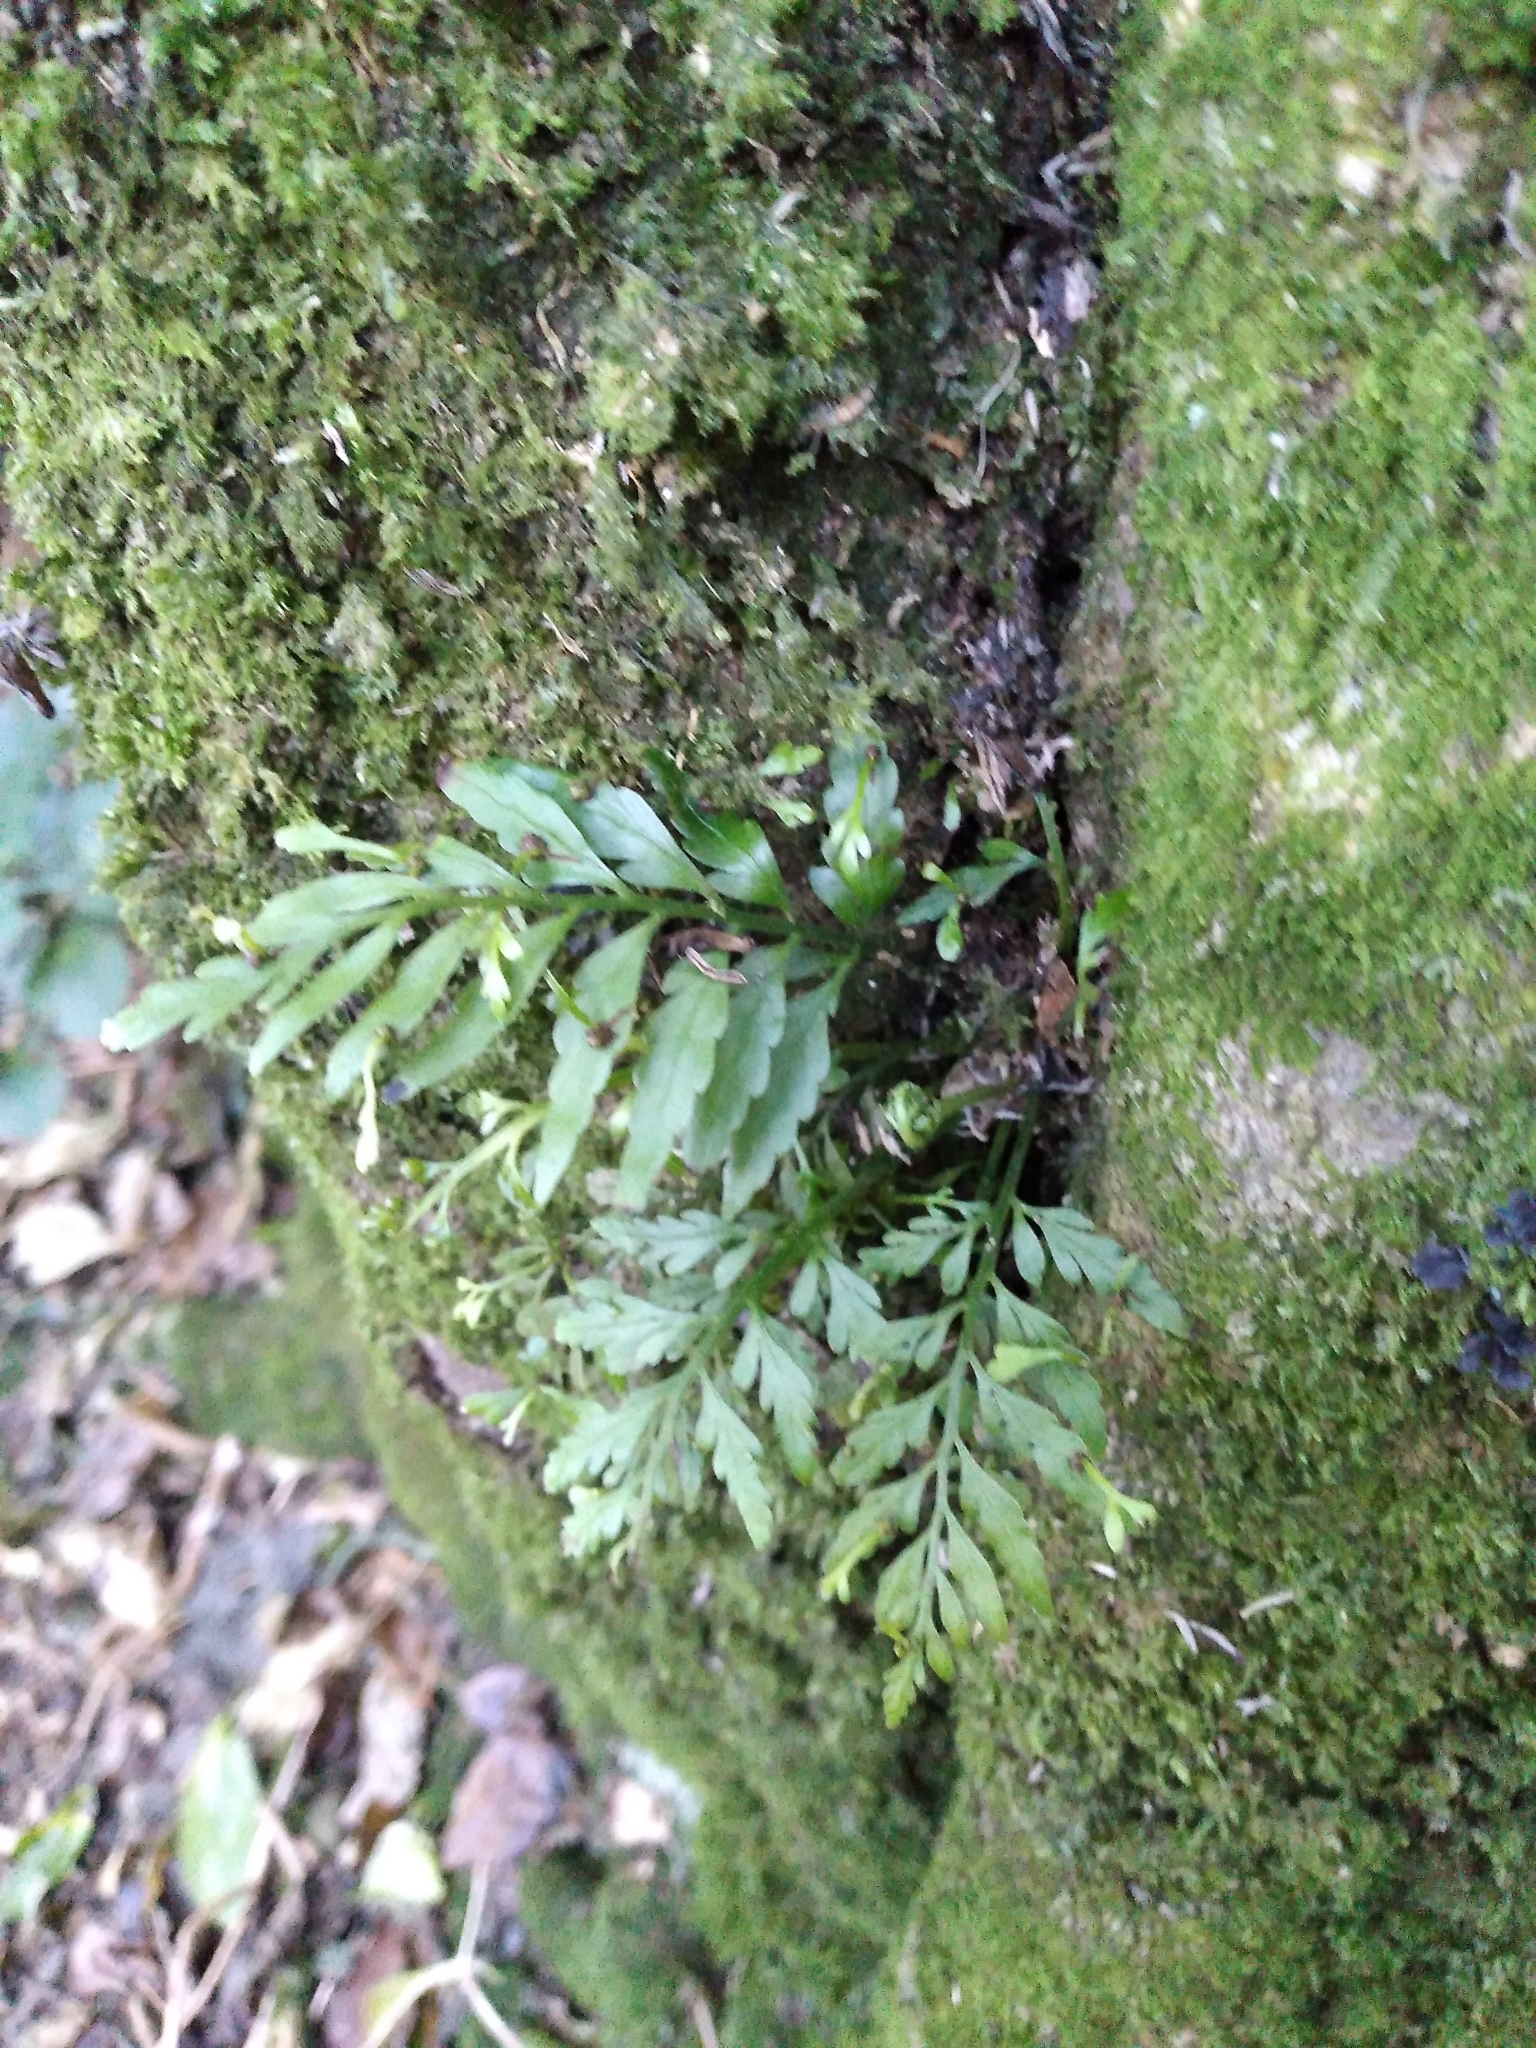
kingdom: Plantae
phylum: Tracheophyta
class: Polypodiopsida
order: Polypodiales
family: Aspleniaceae
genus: Asplenium
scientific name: Asplenium flaccidum
